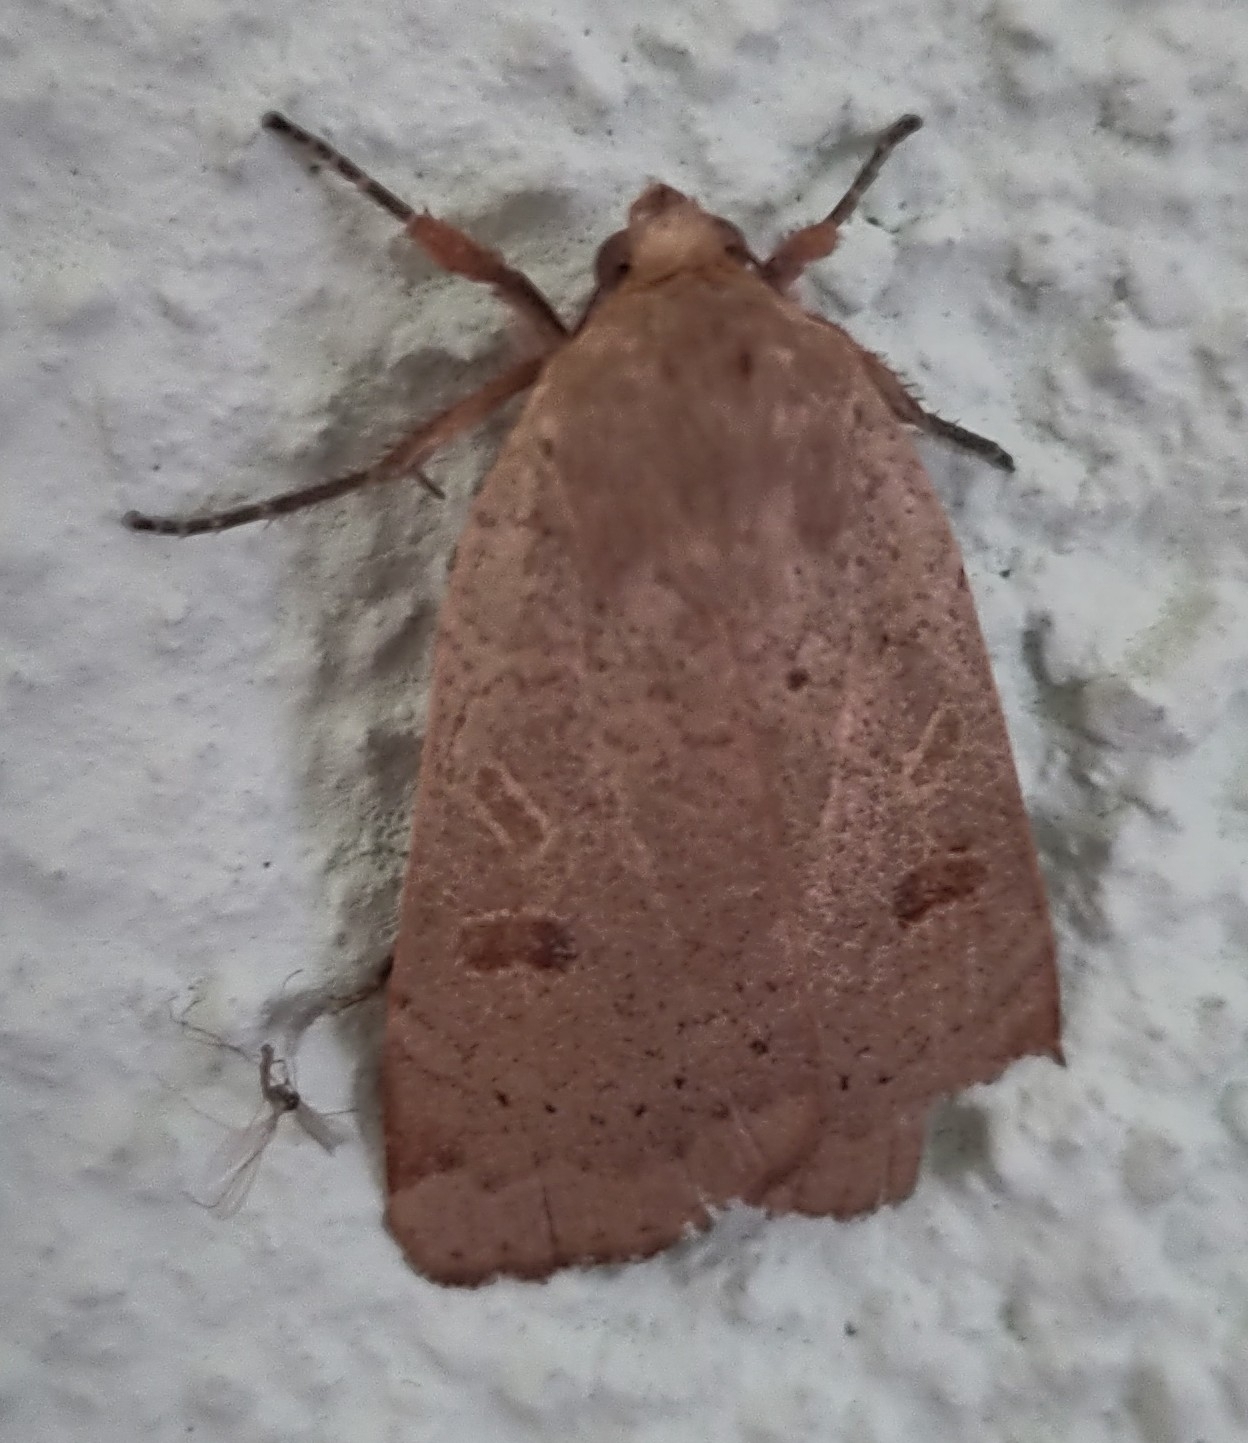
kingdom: Animalia
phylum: Arthropoda
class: Insecta
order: Lepidoptera
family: Noctuidae
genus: Noctua
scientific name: Noctua comes
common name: Lesser yellow underwing
